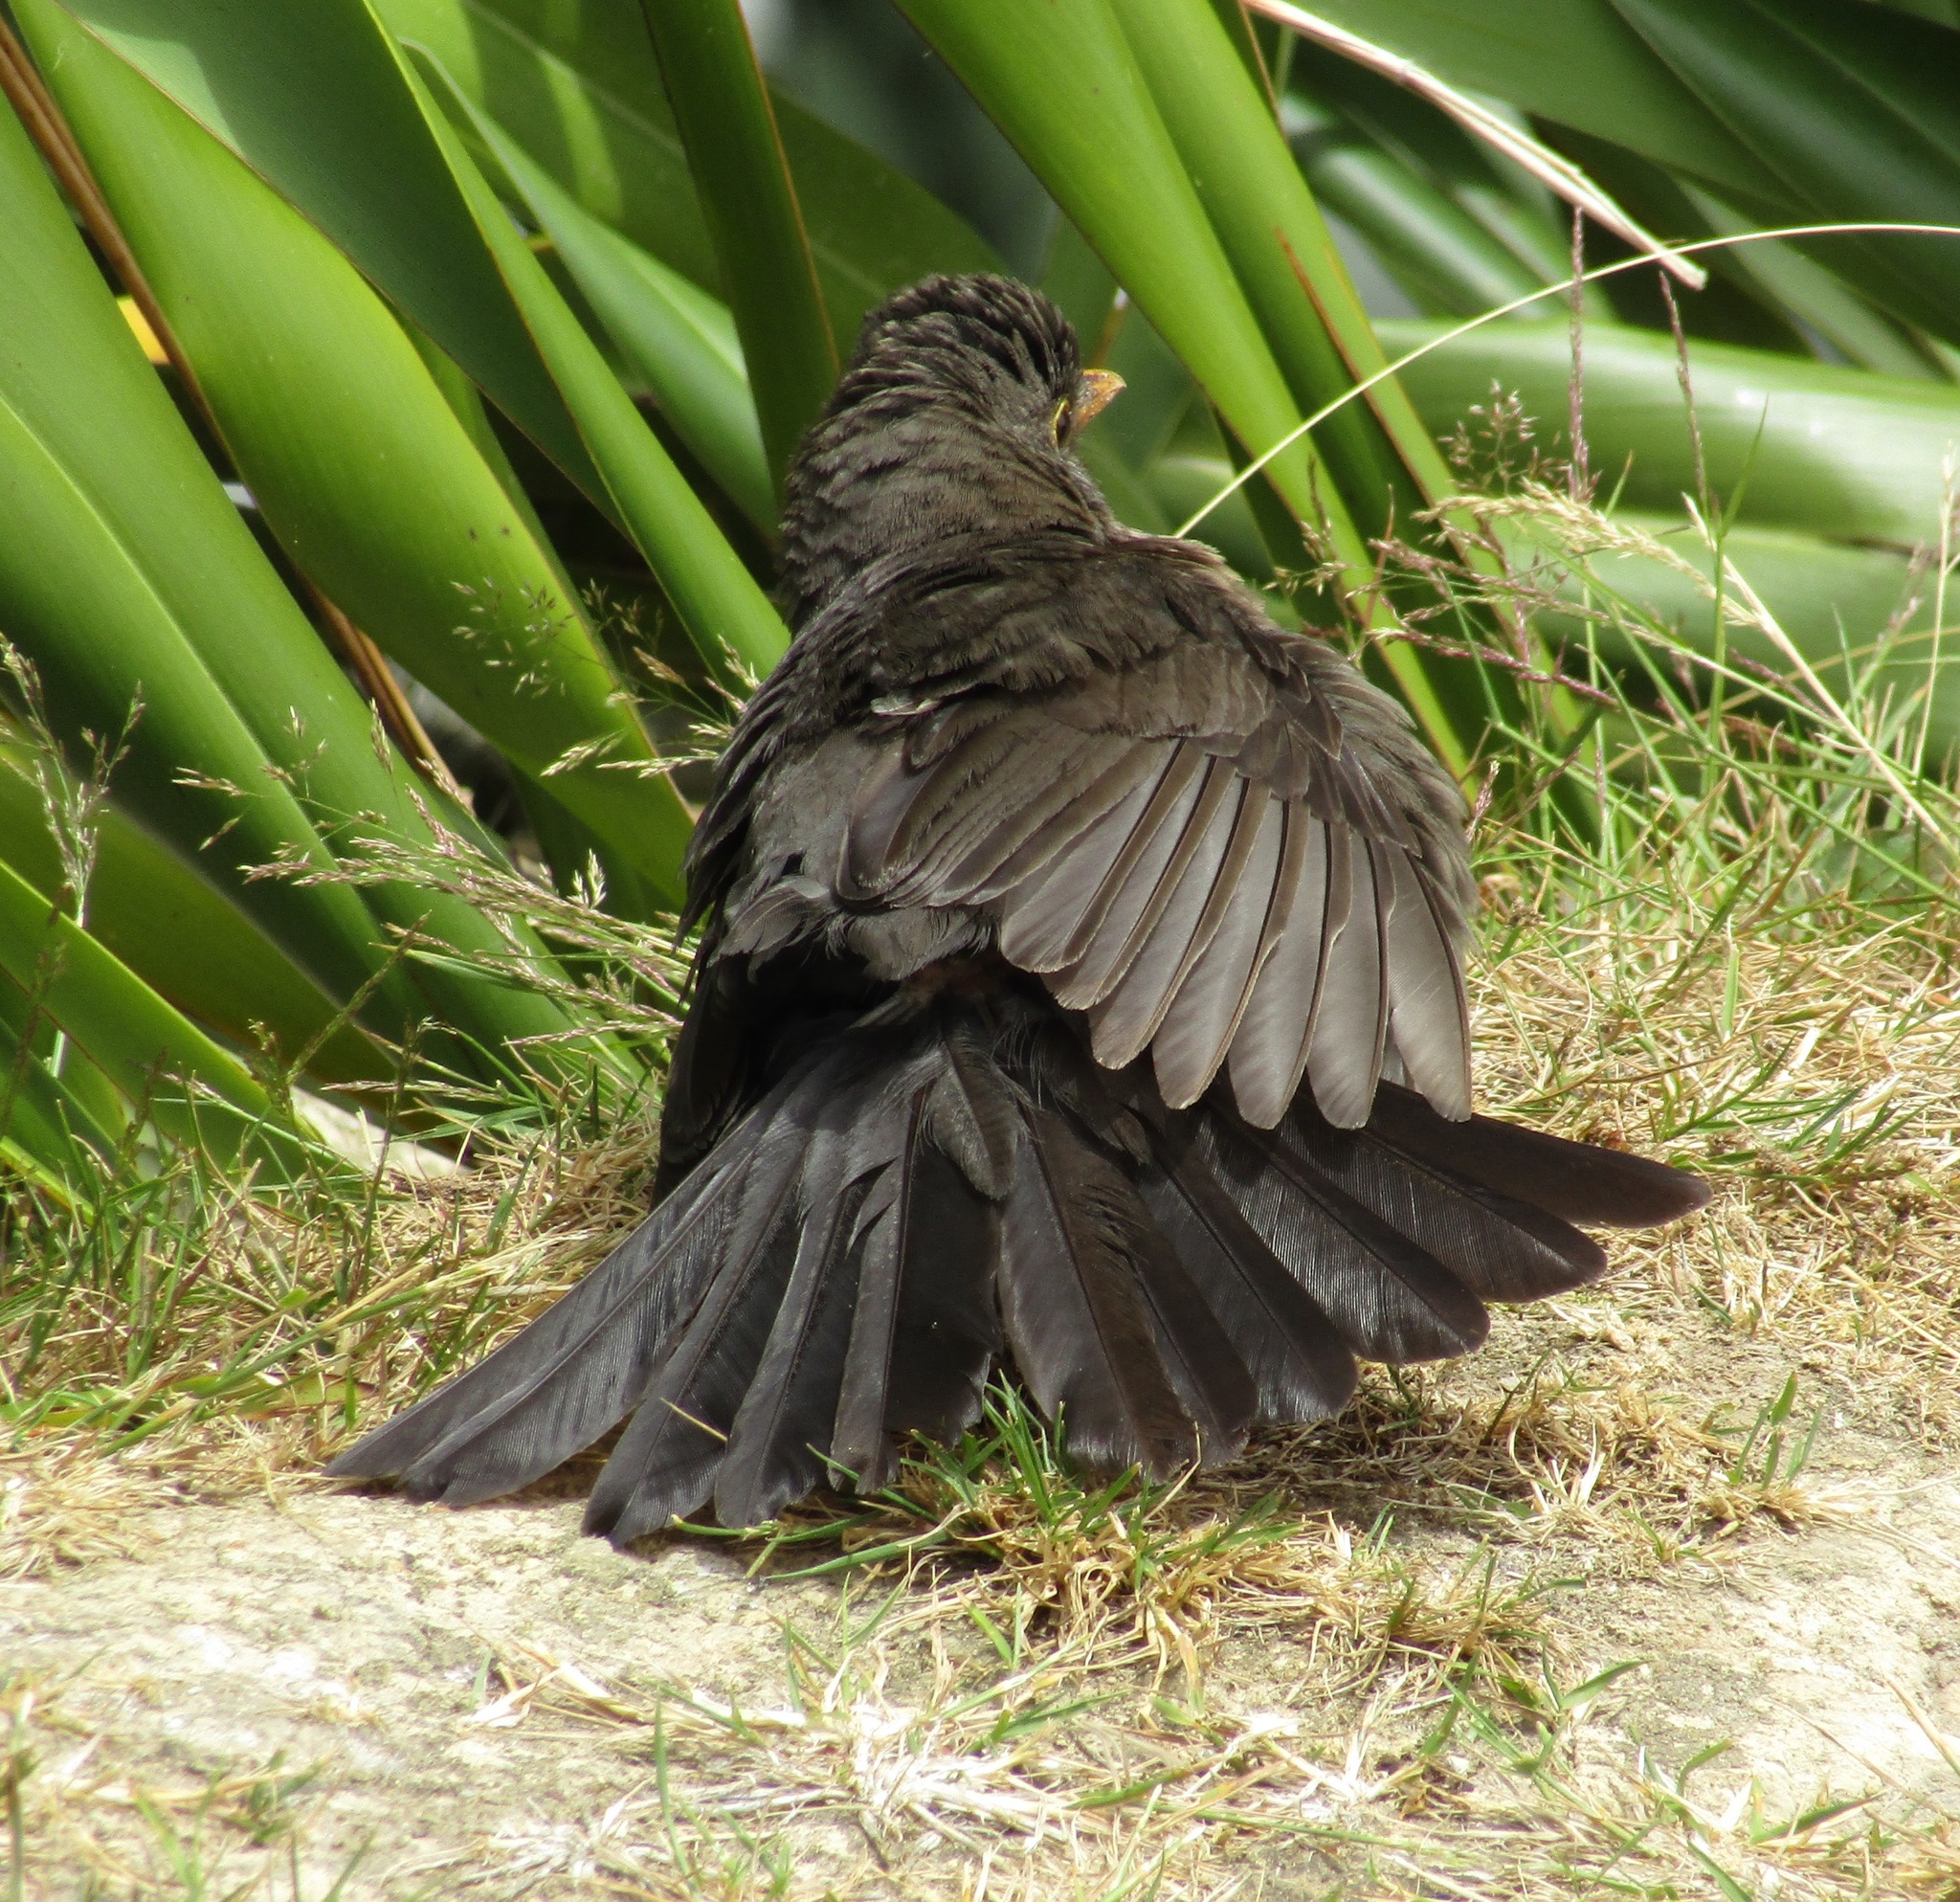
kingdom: Animalia
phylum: Chordata
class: Aves
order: Passeriformes
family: Turdidae
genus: Turdus
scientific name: Turdus merula
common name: Common blackbird
